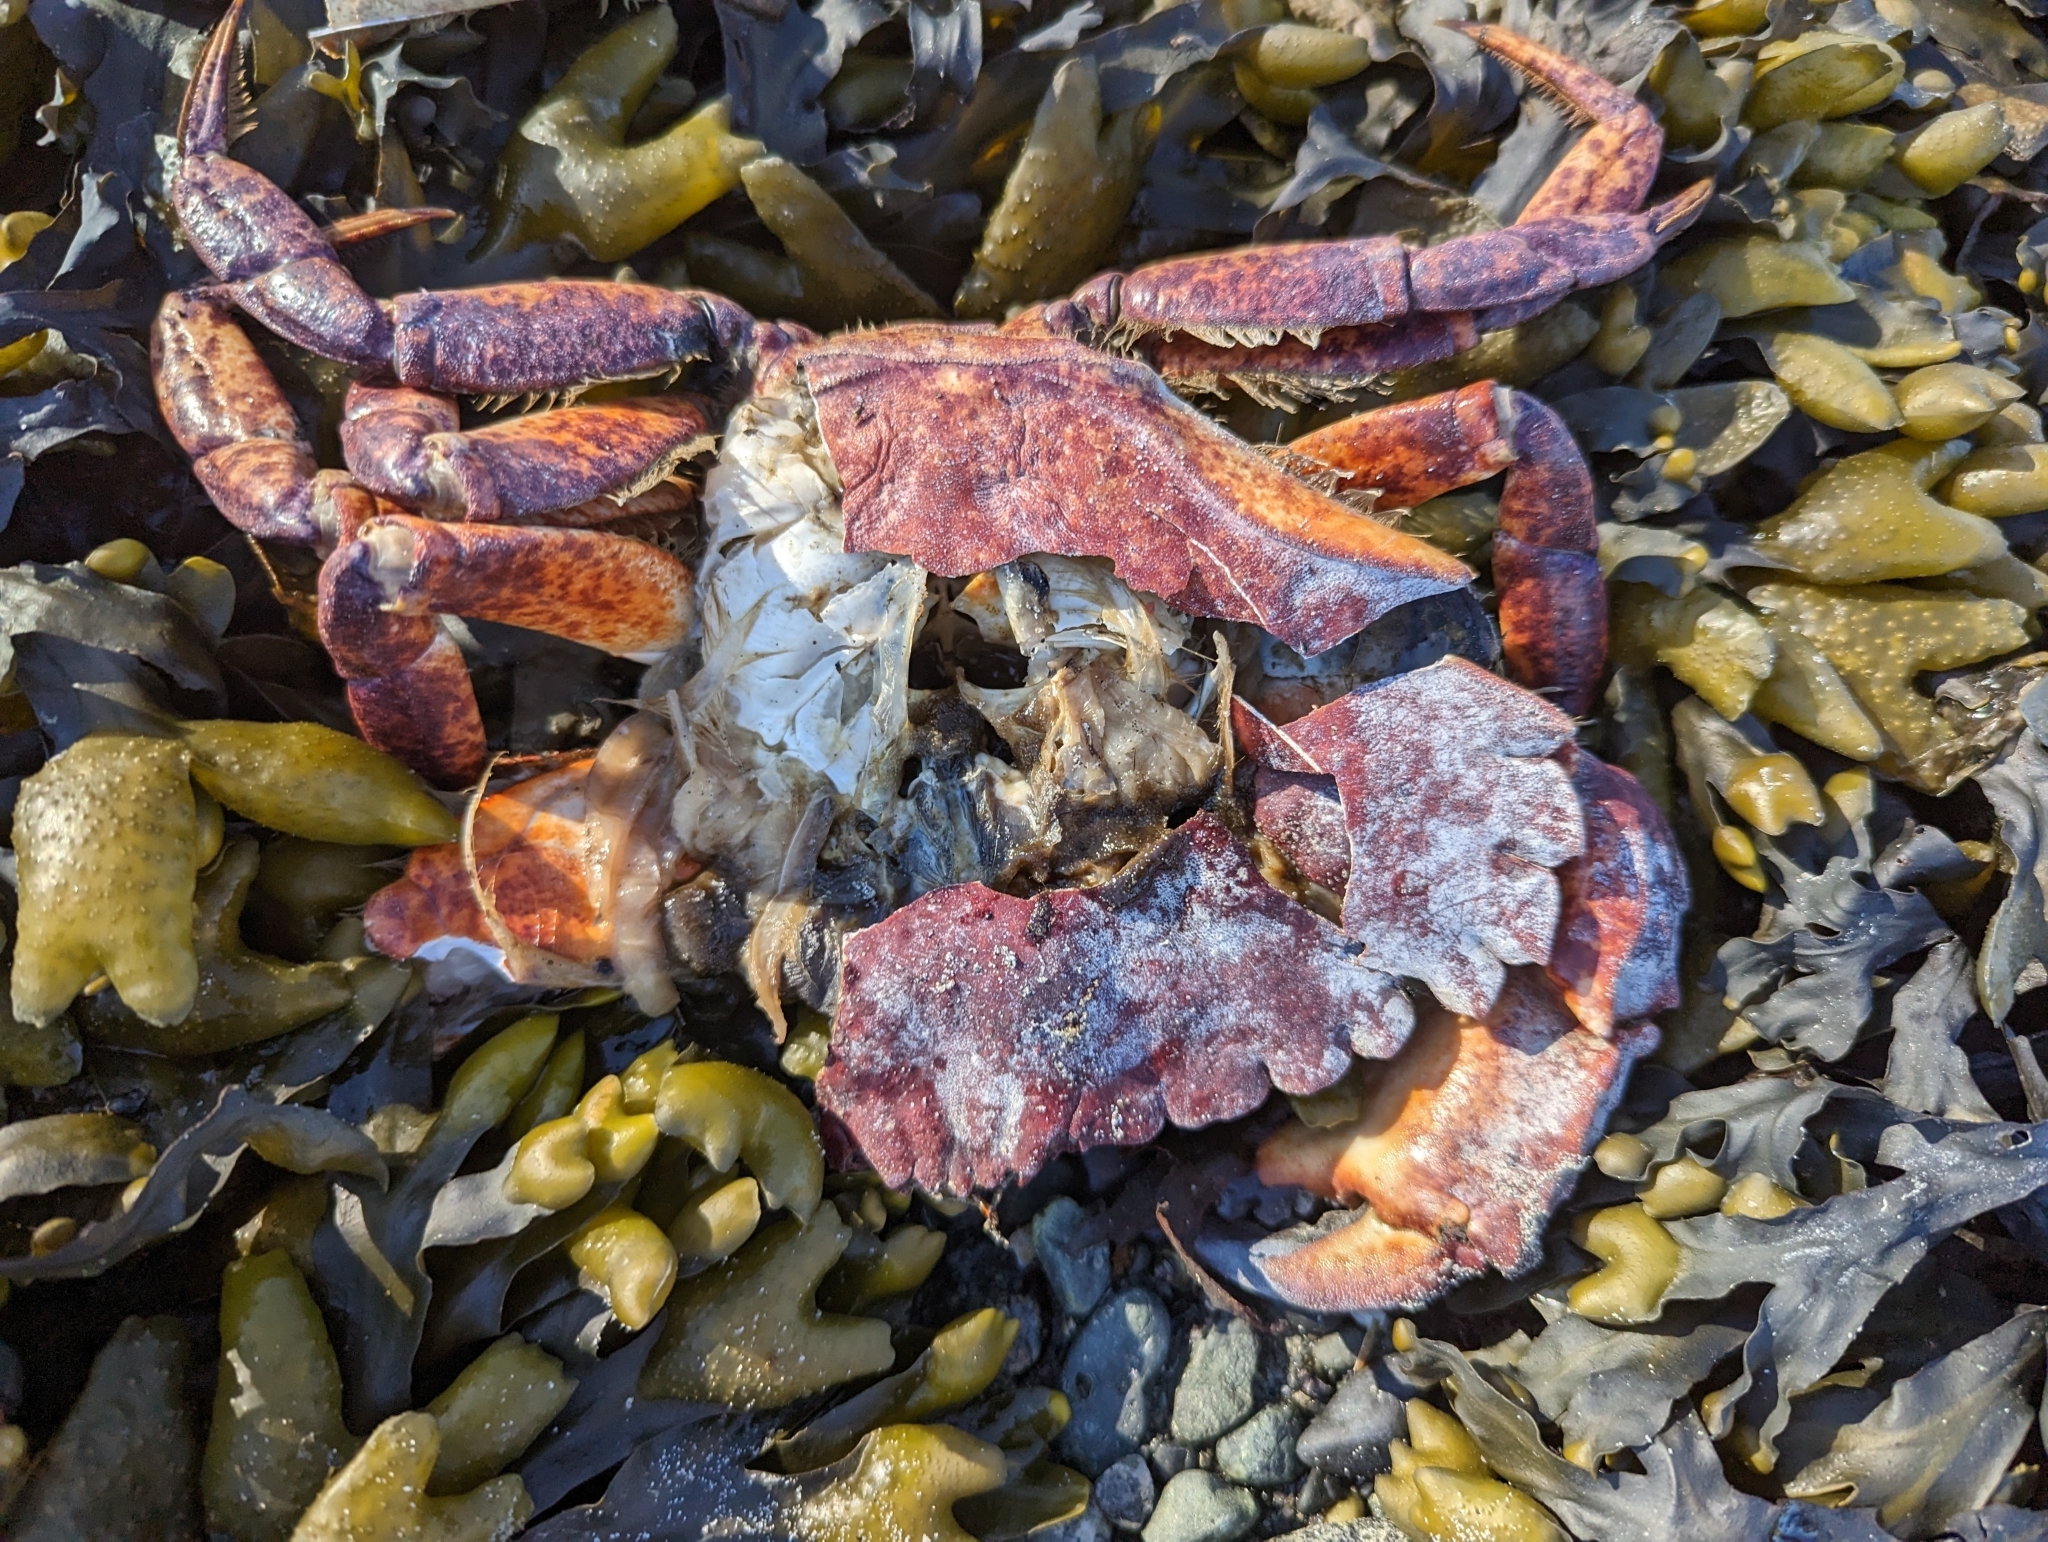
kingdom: Animalia
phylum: Arthropoda
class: Malacostraca
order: Decapoda
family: Cancridae
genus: Cancer
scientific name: Cancer productus
